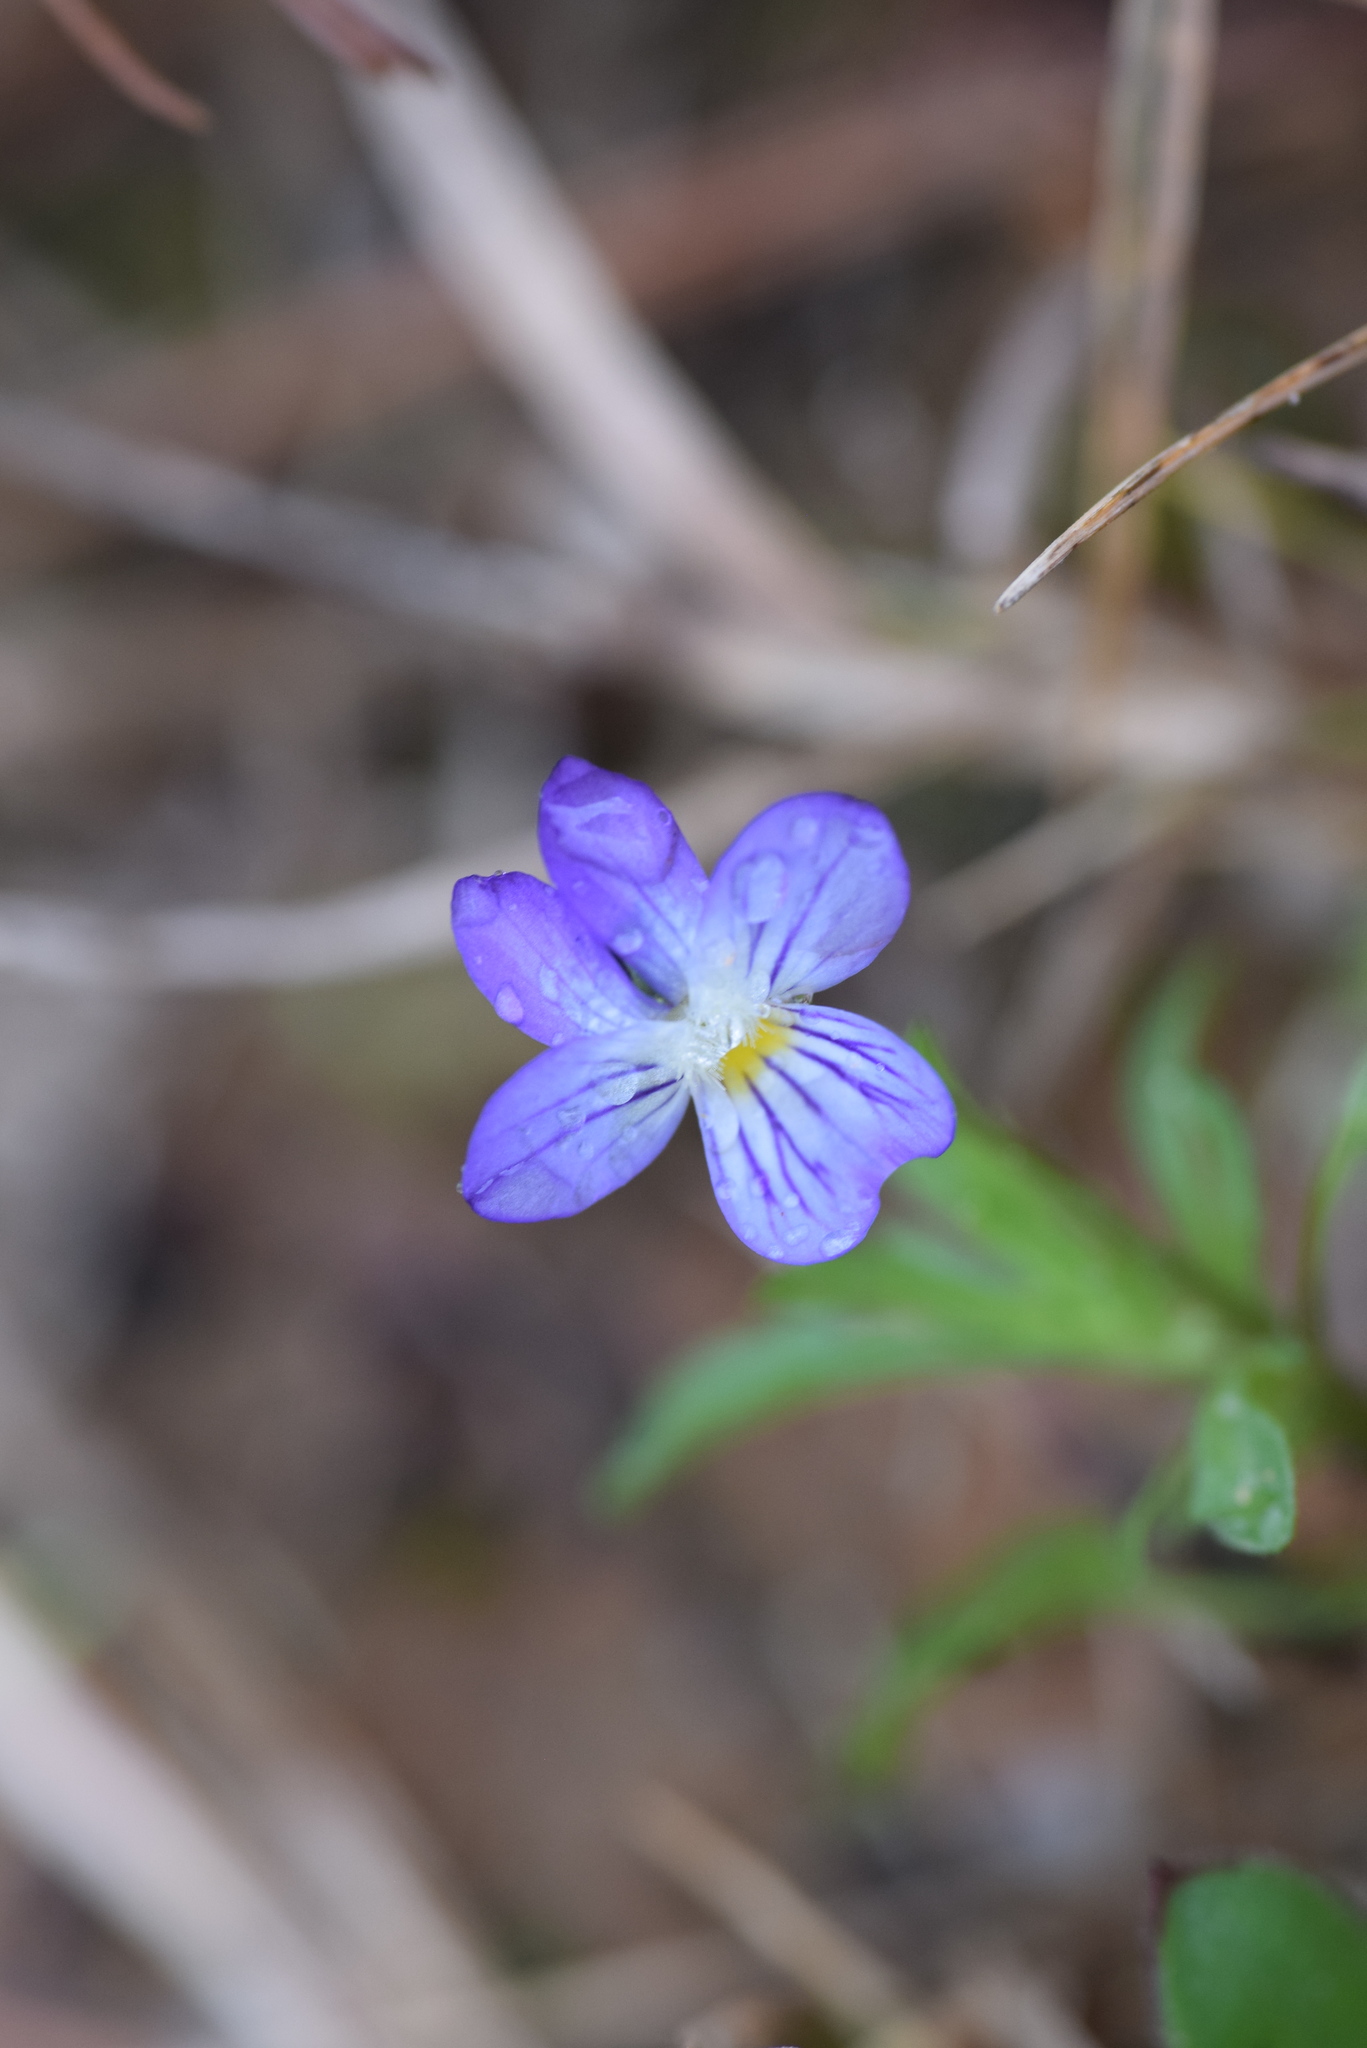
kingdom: Plantae
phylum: Tracheophyta
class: Magnoliopsida
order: Malpighiales
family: Violaceae
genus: Viola
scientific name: Viola rafinesquei
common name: American field pansy
